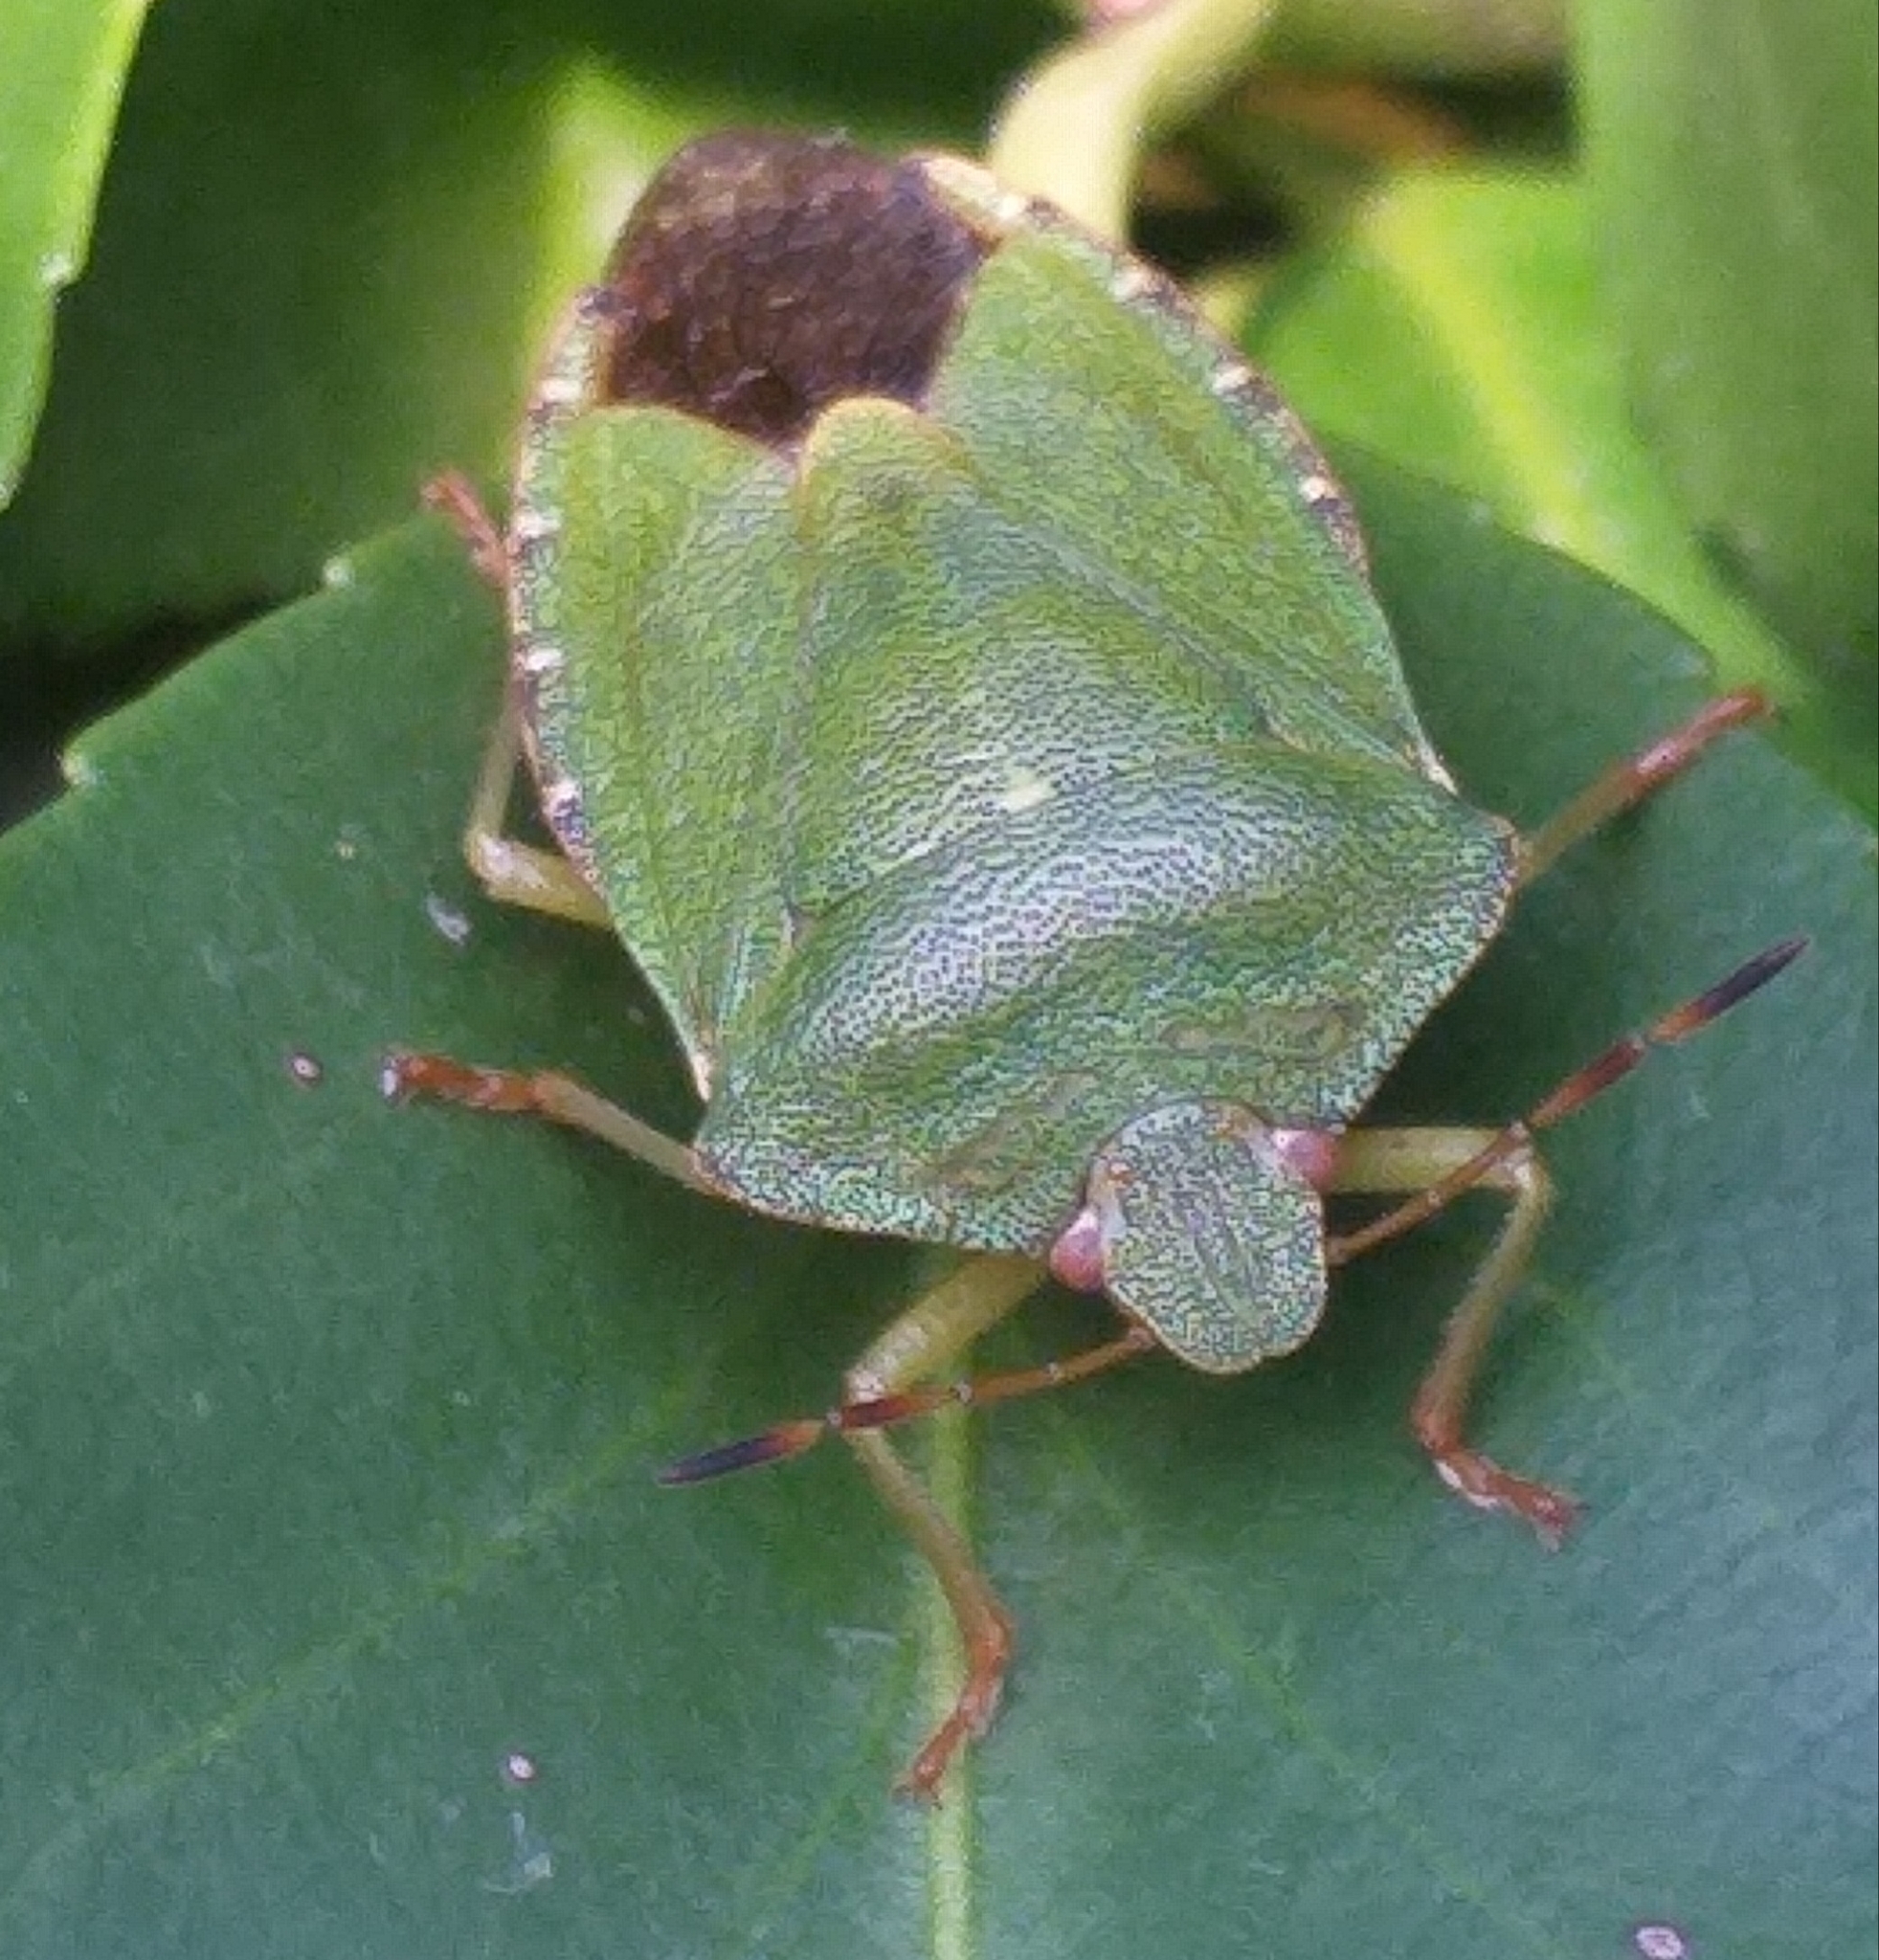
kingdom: Animalia
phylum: Arthropoda
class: Insecta
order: Hemiptera
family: Pentatomidae
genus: Palomena
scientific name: Palomena prasina
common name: Green shieldbug
